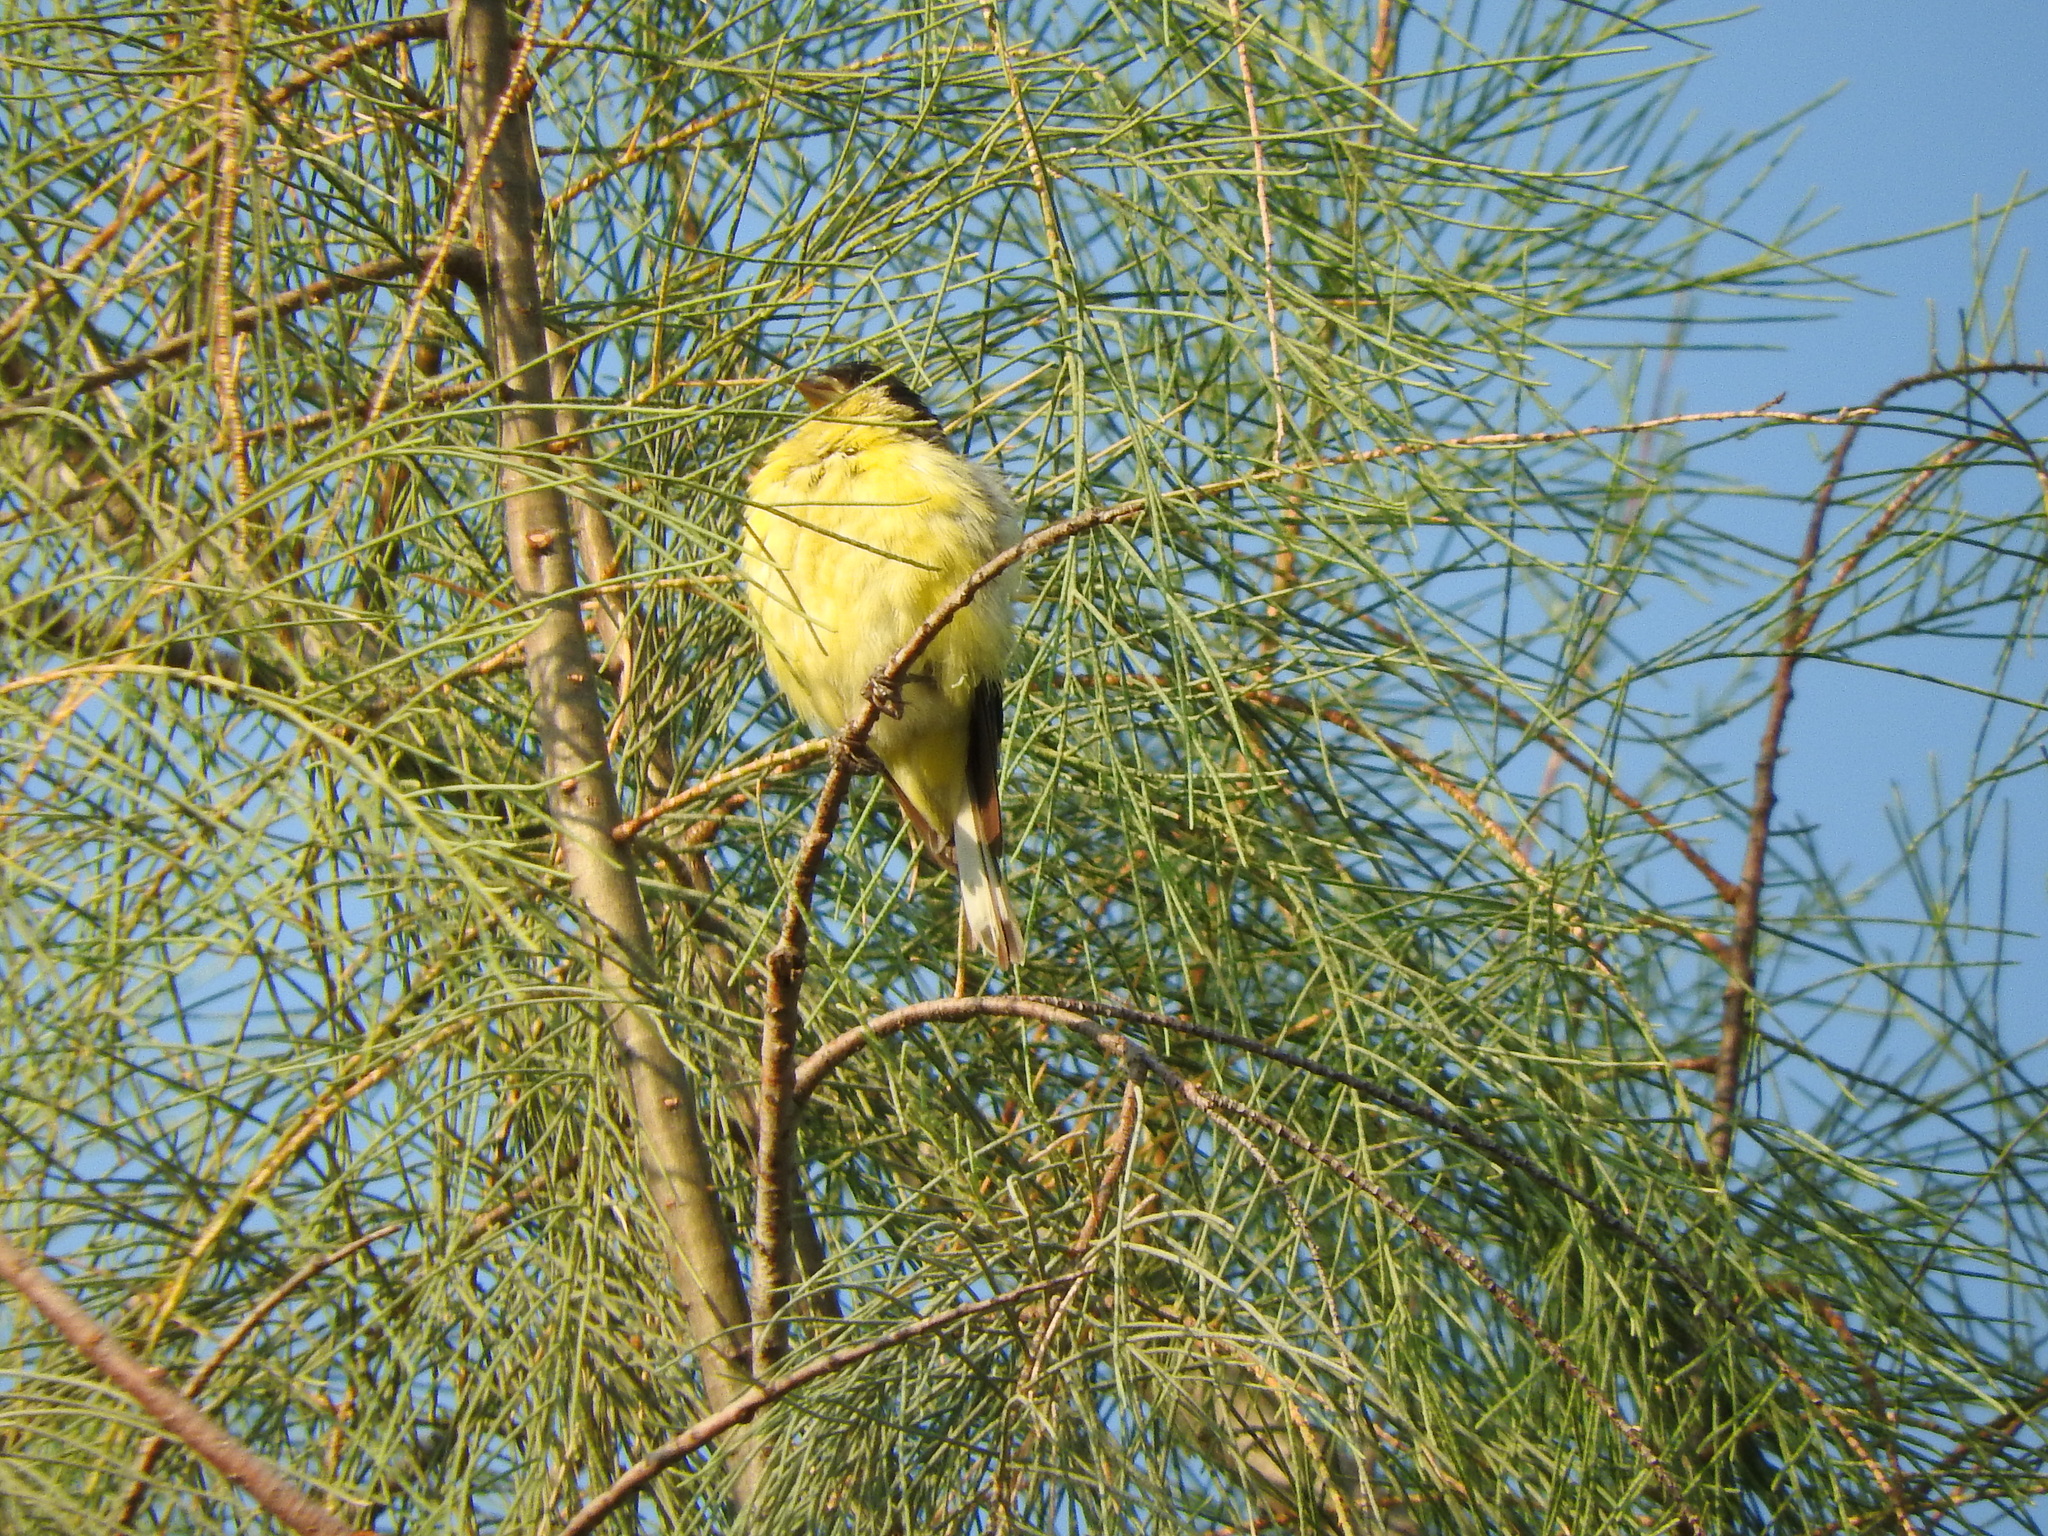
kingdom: Animalia
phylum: Chordata
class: Aves
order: Passeriformes
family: Fringillidae
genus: Spinus
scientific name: Spinus psaltria
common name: Lesser goldfinch
